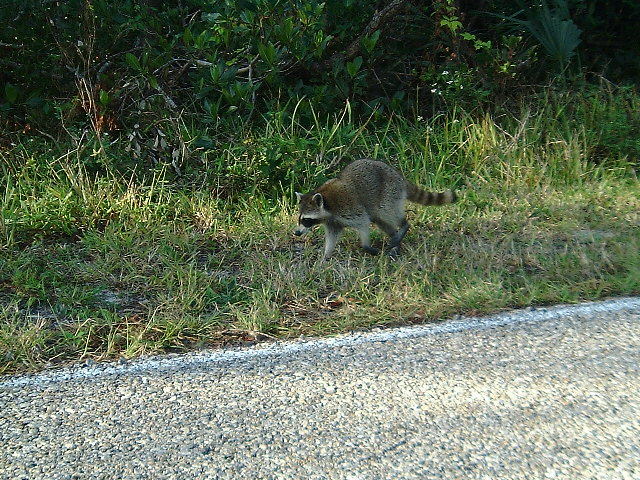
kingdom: Animalia
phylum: Chordata
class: Mammalia
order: Carnivora
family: Procyonidae
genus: Procyon
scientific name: Procyon lotor
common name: Raccoon
